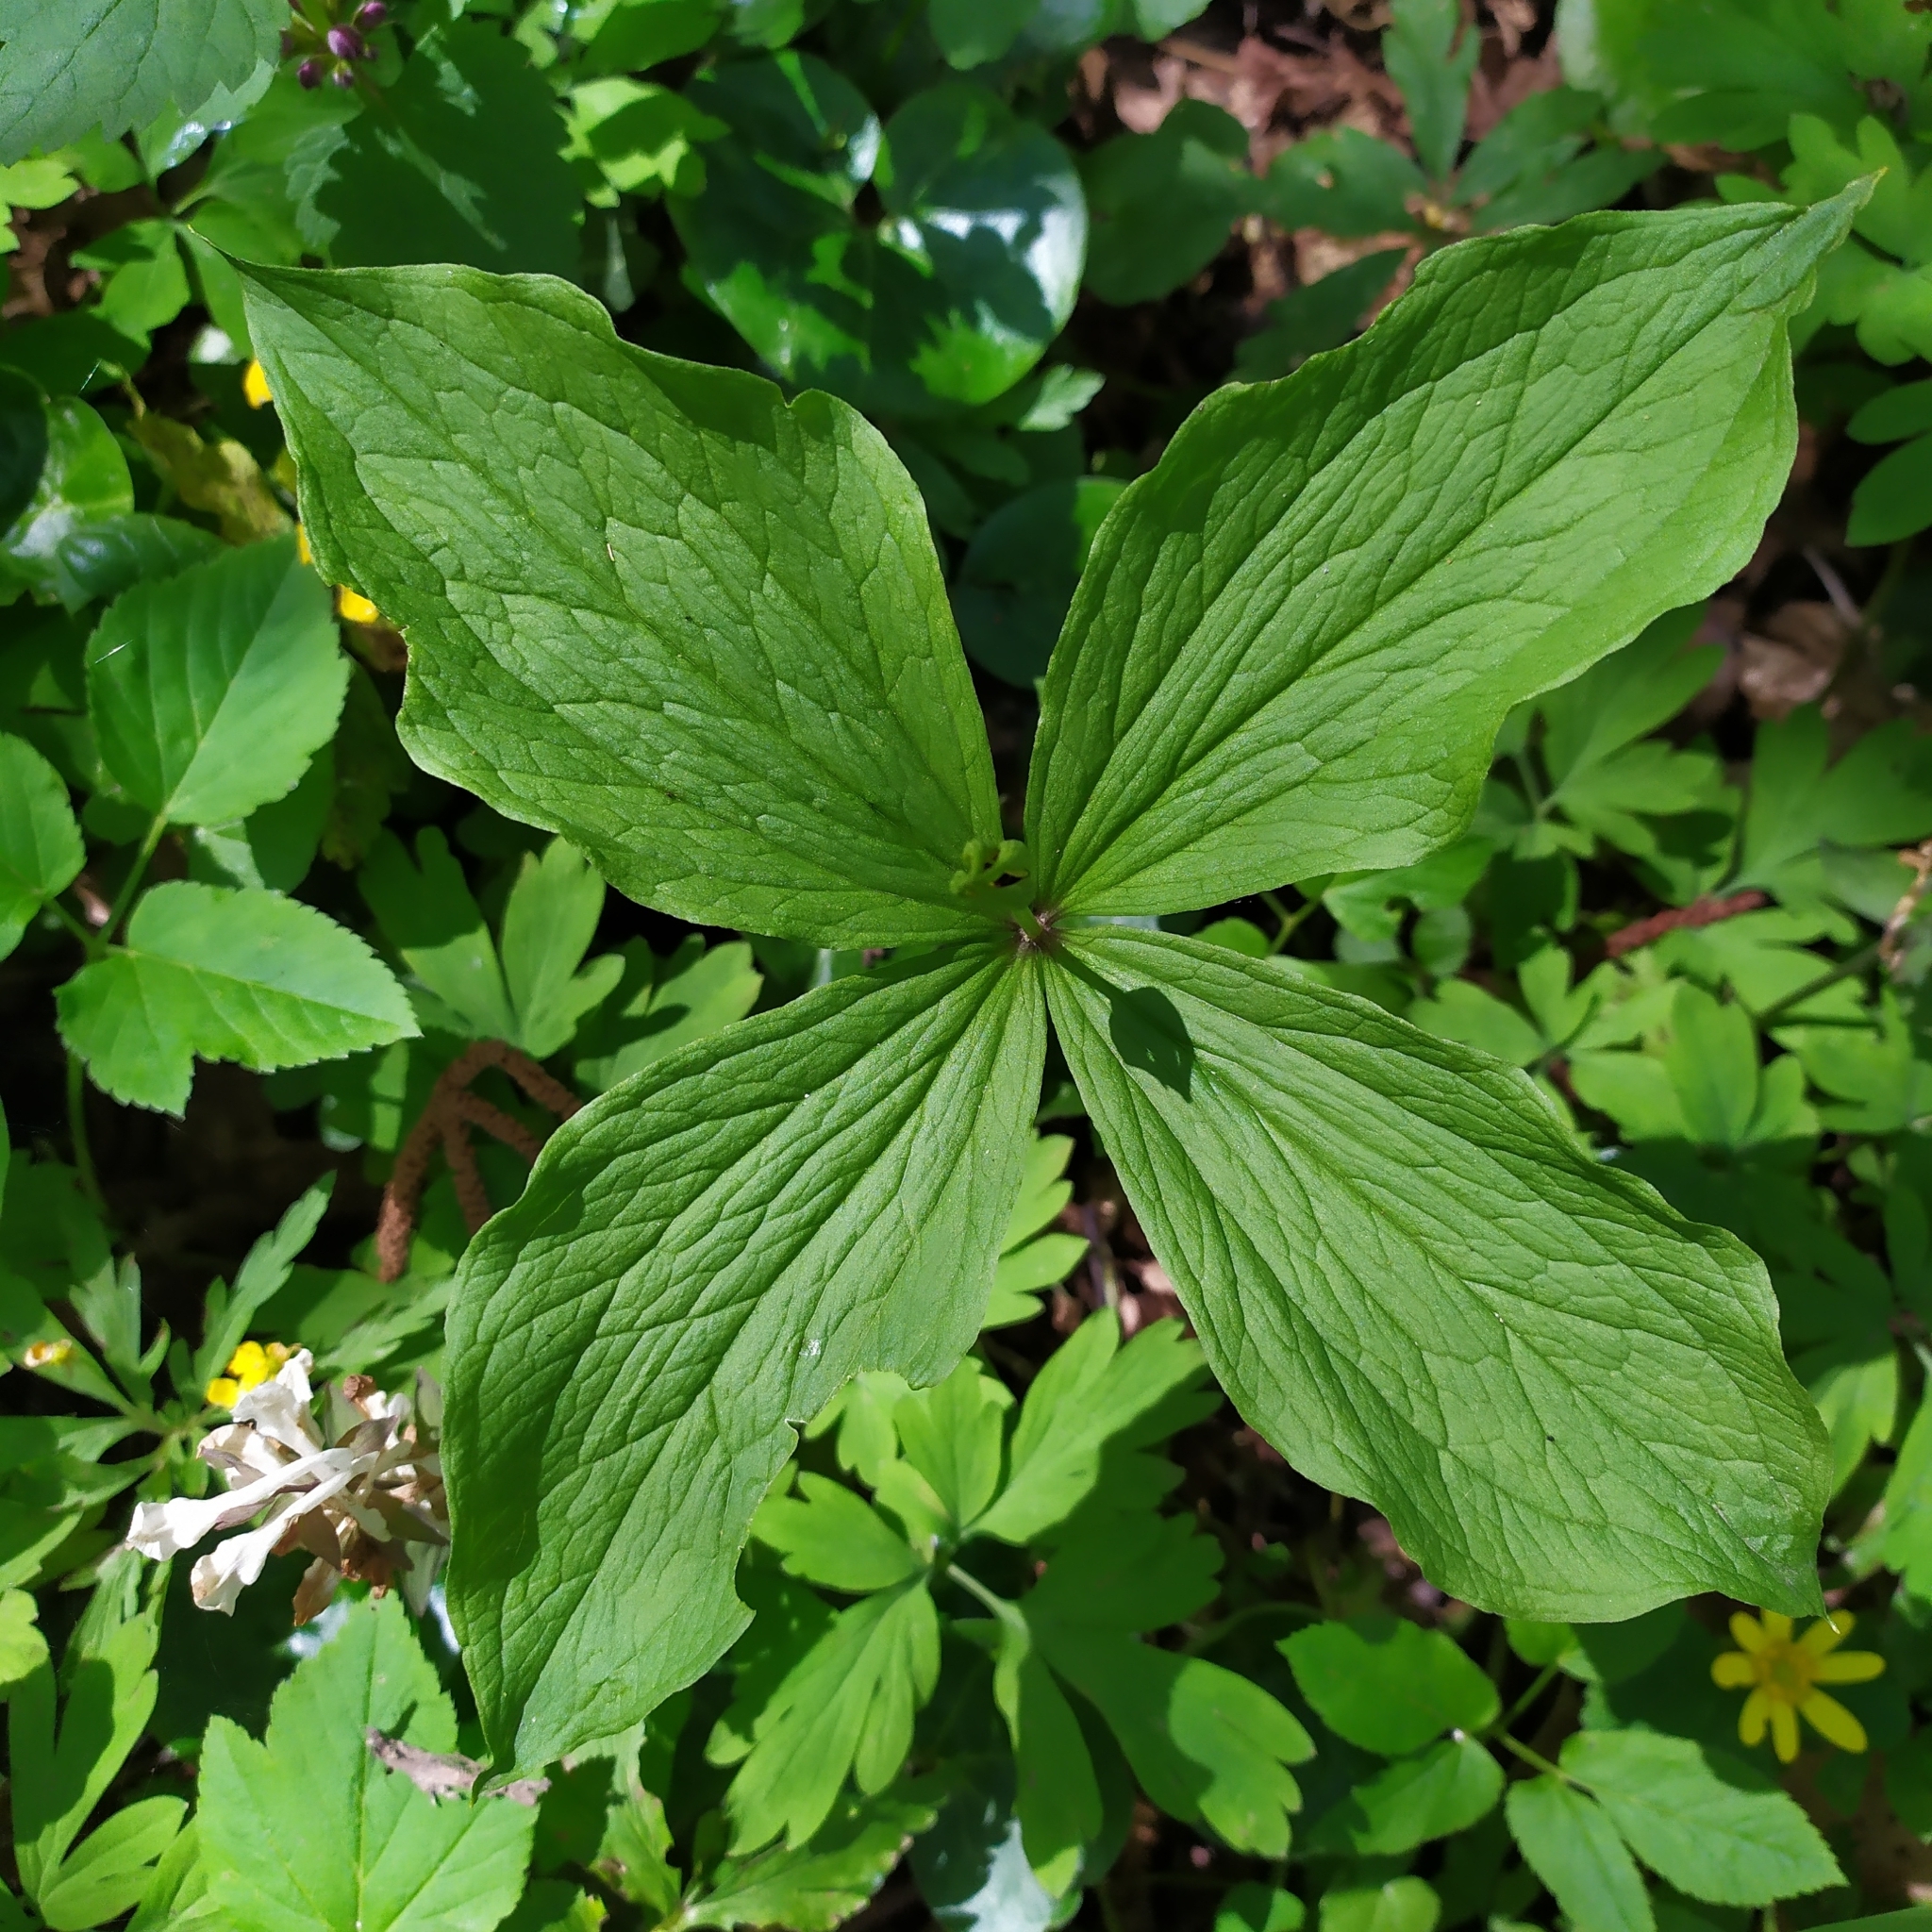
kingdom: Plantae
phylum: Tracheophyta
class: Liliopsida
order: Liliales
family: Melanthiaceae
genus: Paris
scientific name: Paris quadrifolia
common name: Herb-paris
